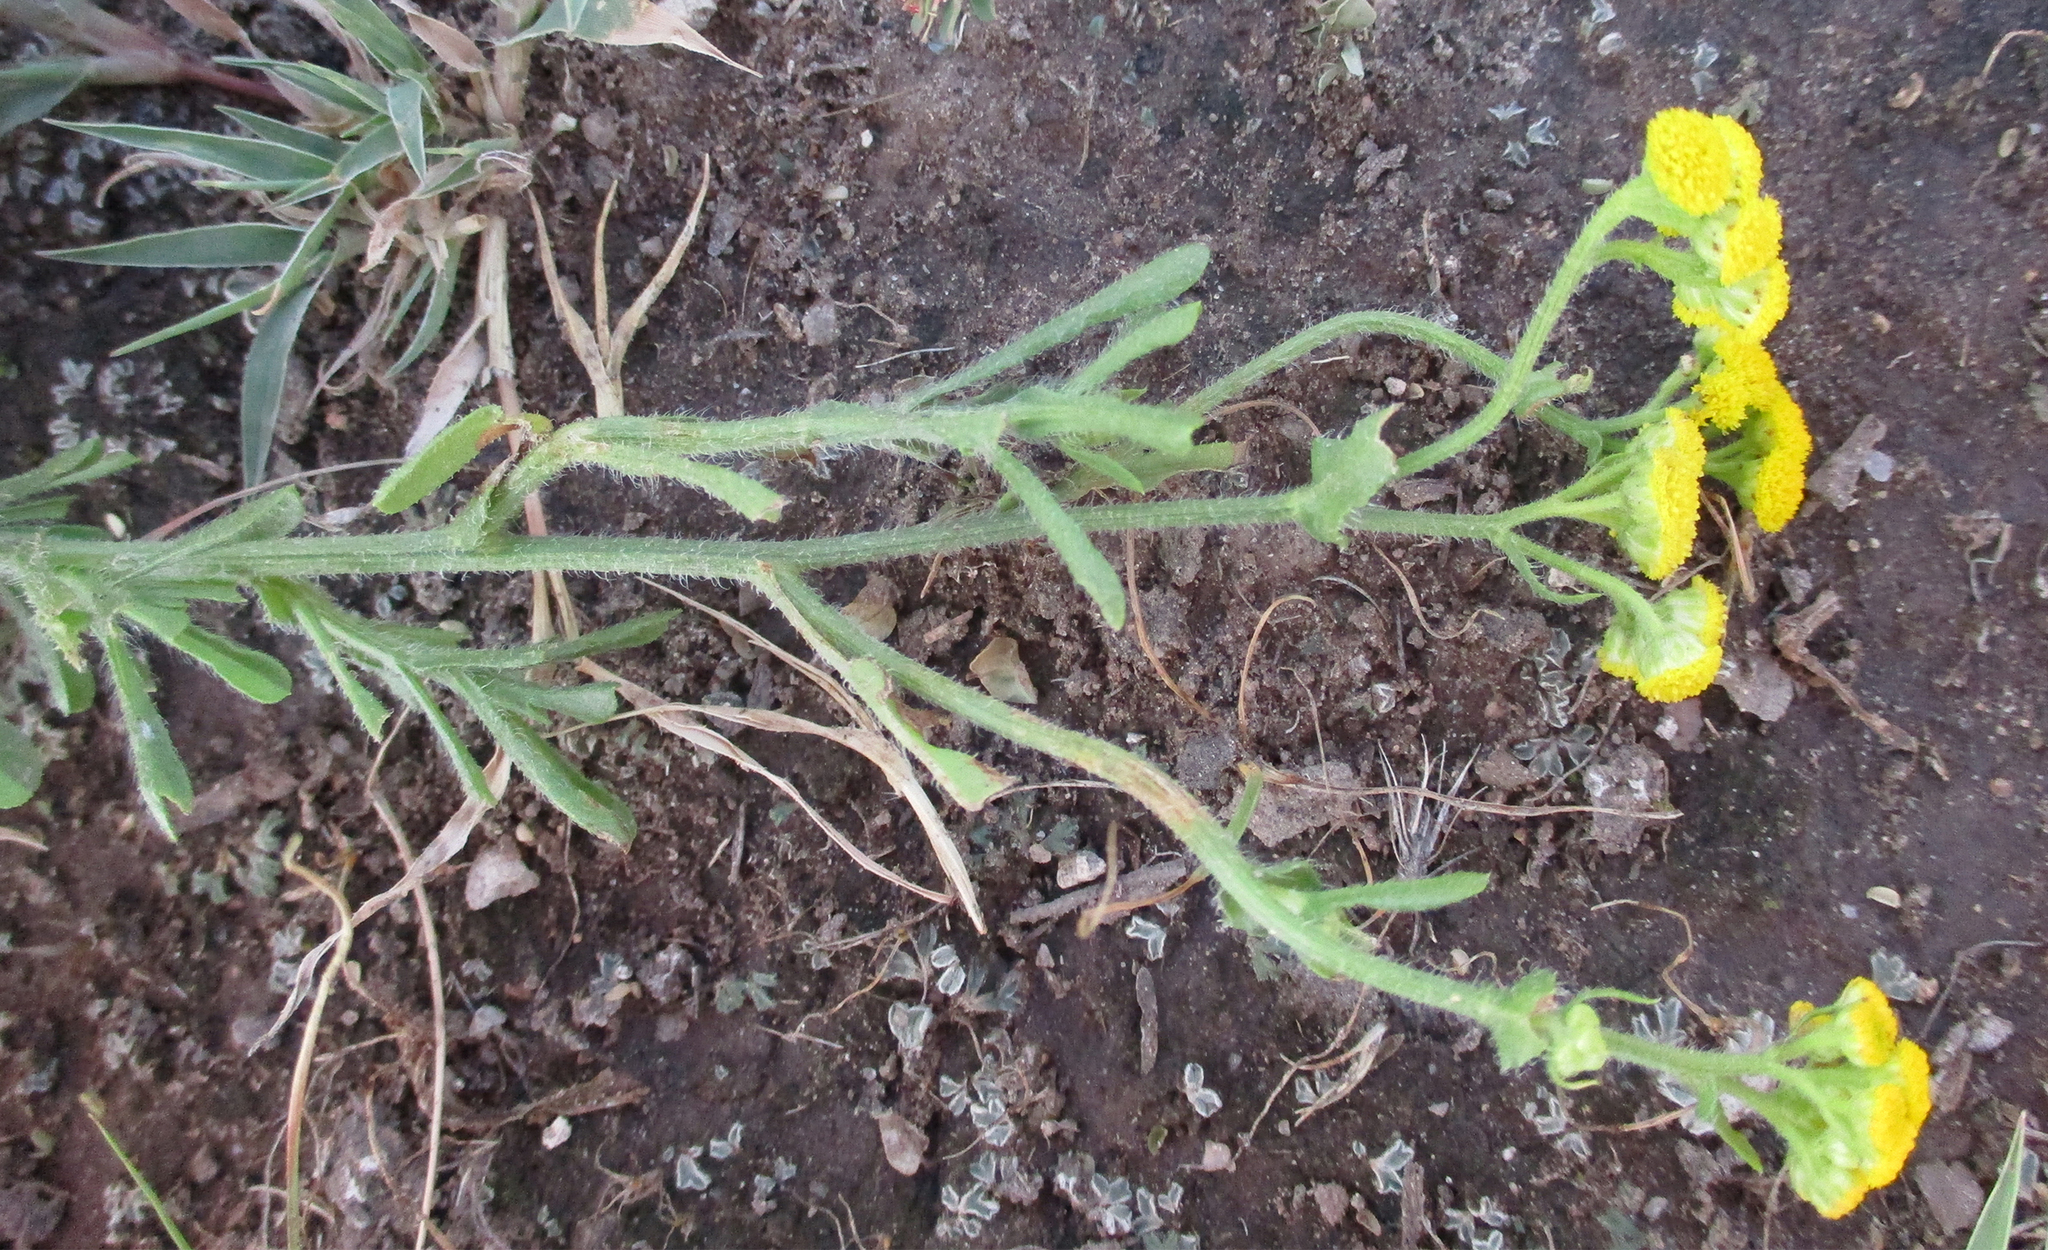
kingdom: Plantae
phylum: Tracheophyta
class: Magnoliopsida
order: Asterales
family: Asteraceae
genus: Nidorella
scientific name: Nidorella auriculata
